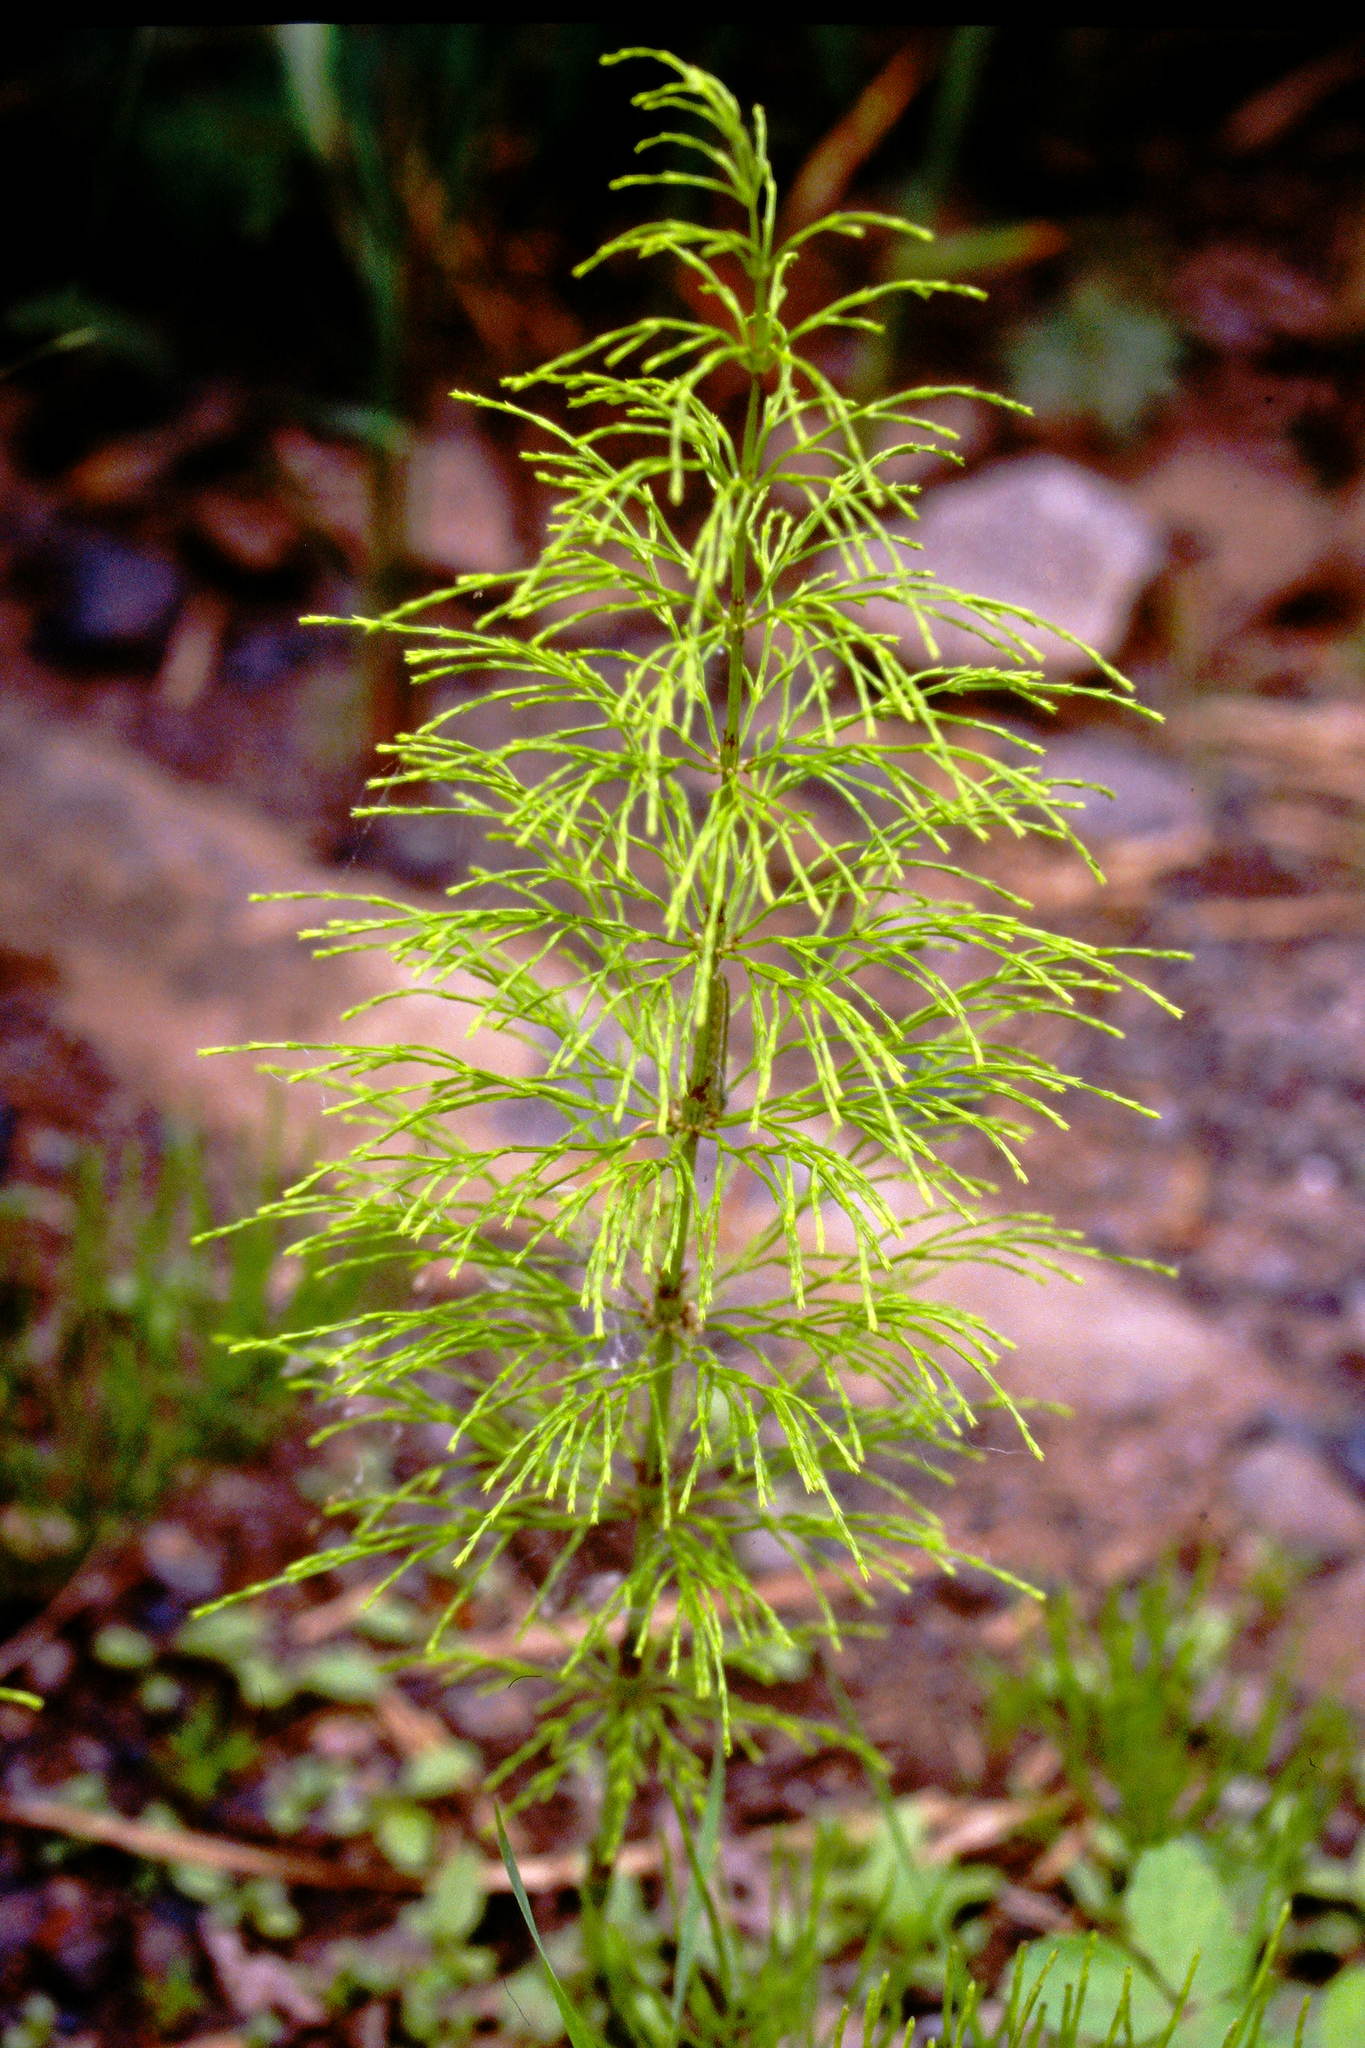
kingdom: Plantae
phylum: Tracheophyta
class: Polypodiopsida
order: Equisetales
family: Equisetaceae
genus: Equisetum
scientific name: Equisetum sylvaticum
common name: Wood horsetail
